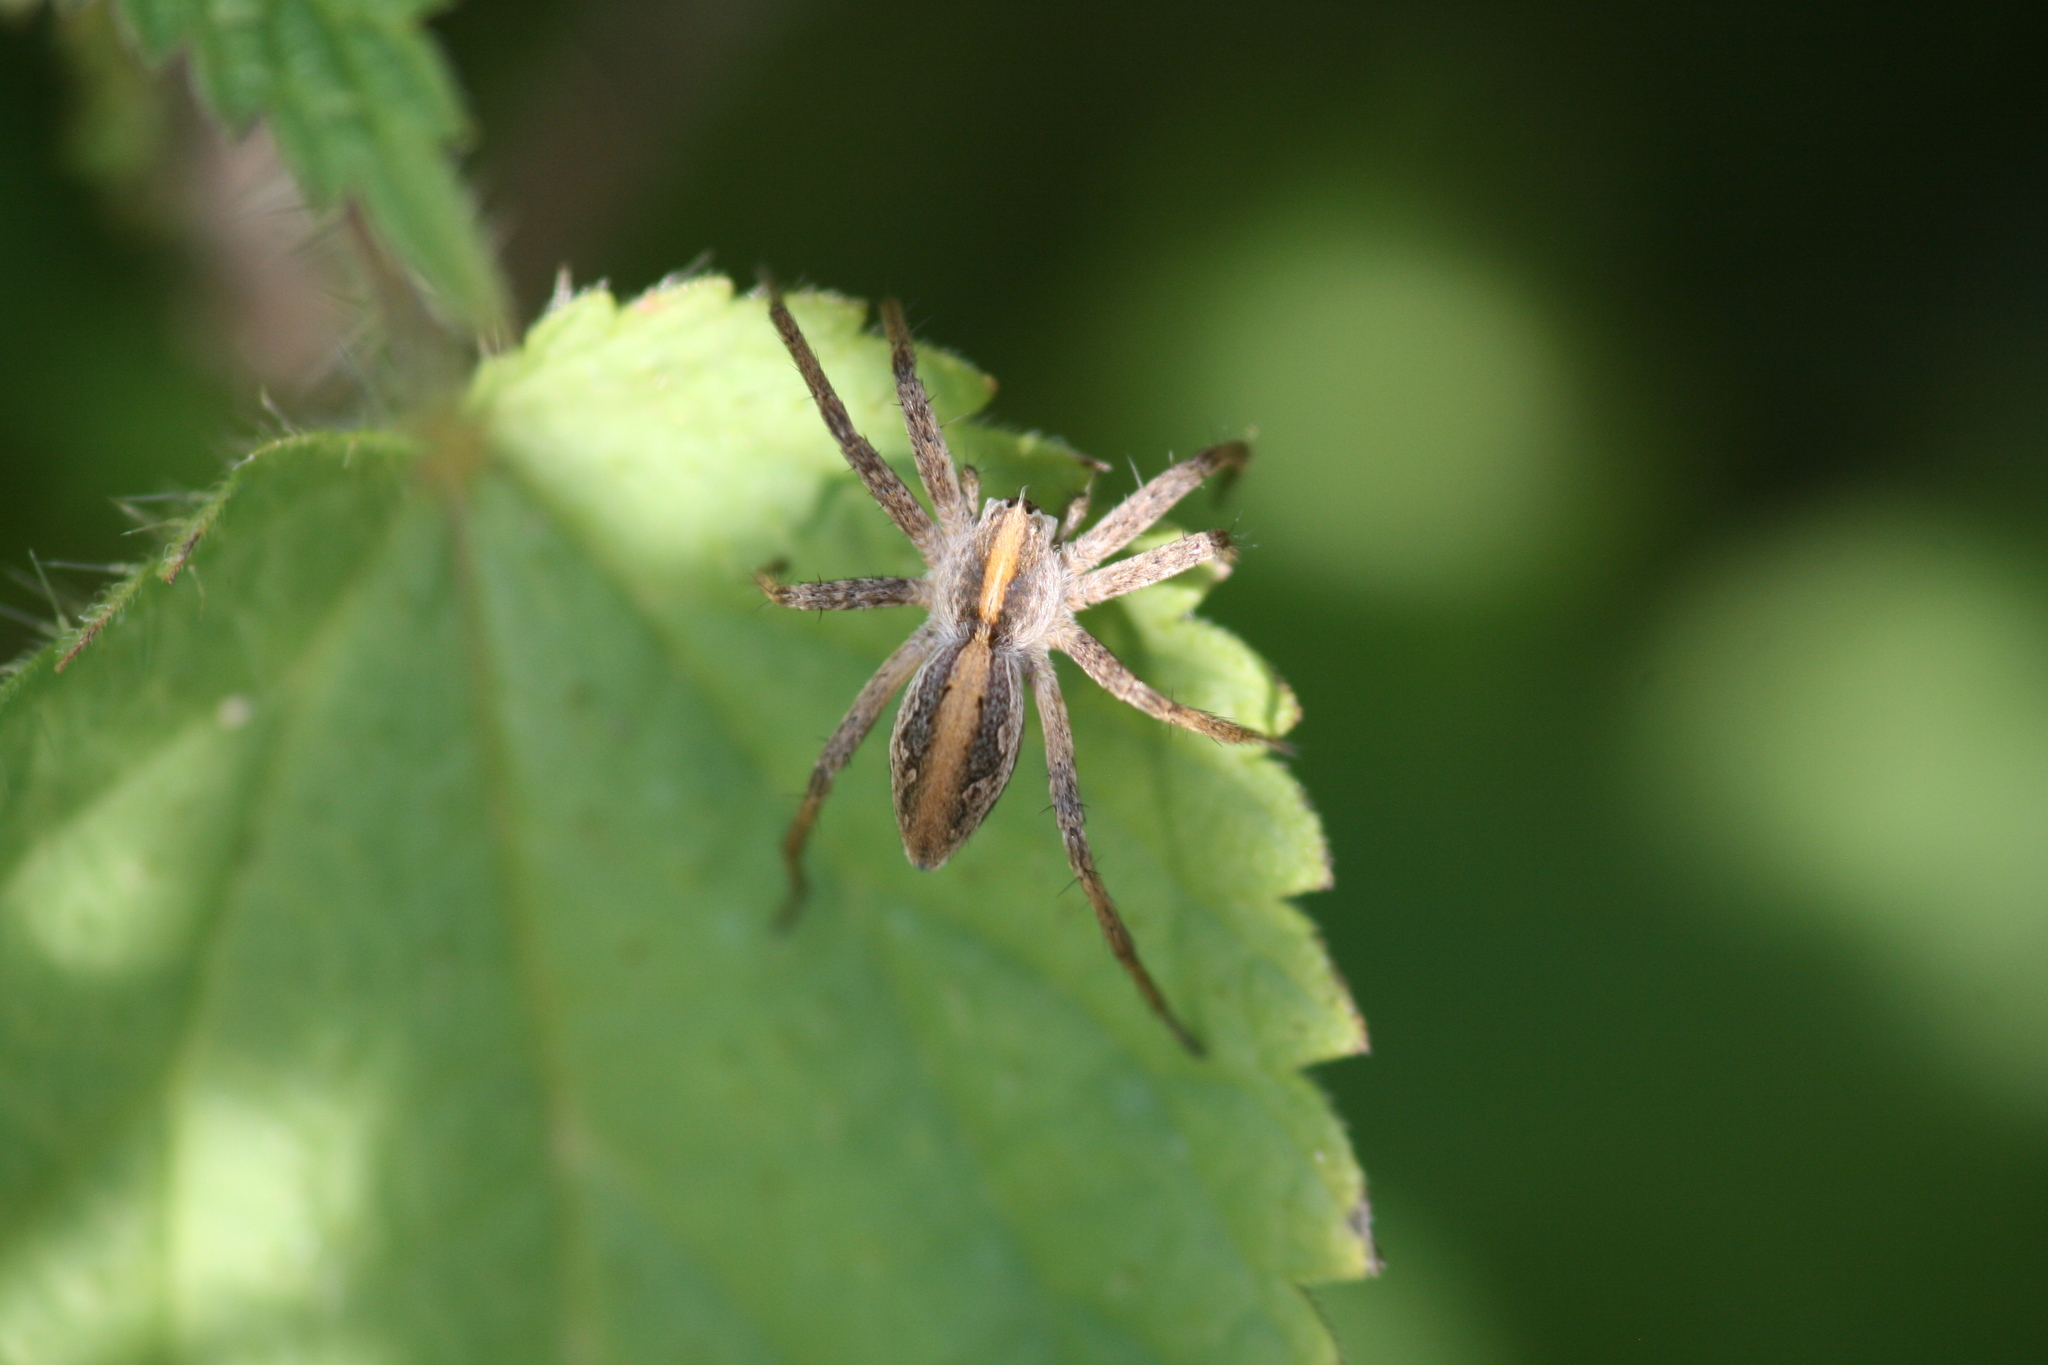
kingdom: Animalia
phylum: Arthropoda
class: Arachnida
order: Araneae
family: Pisauridae
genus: Pisaura
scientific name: Pisaura mirabilis
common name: Tent spider
